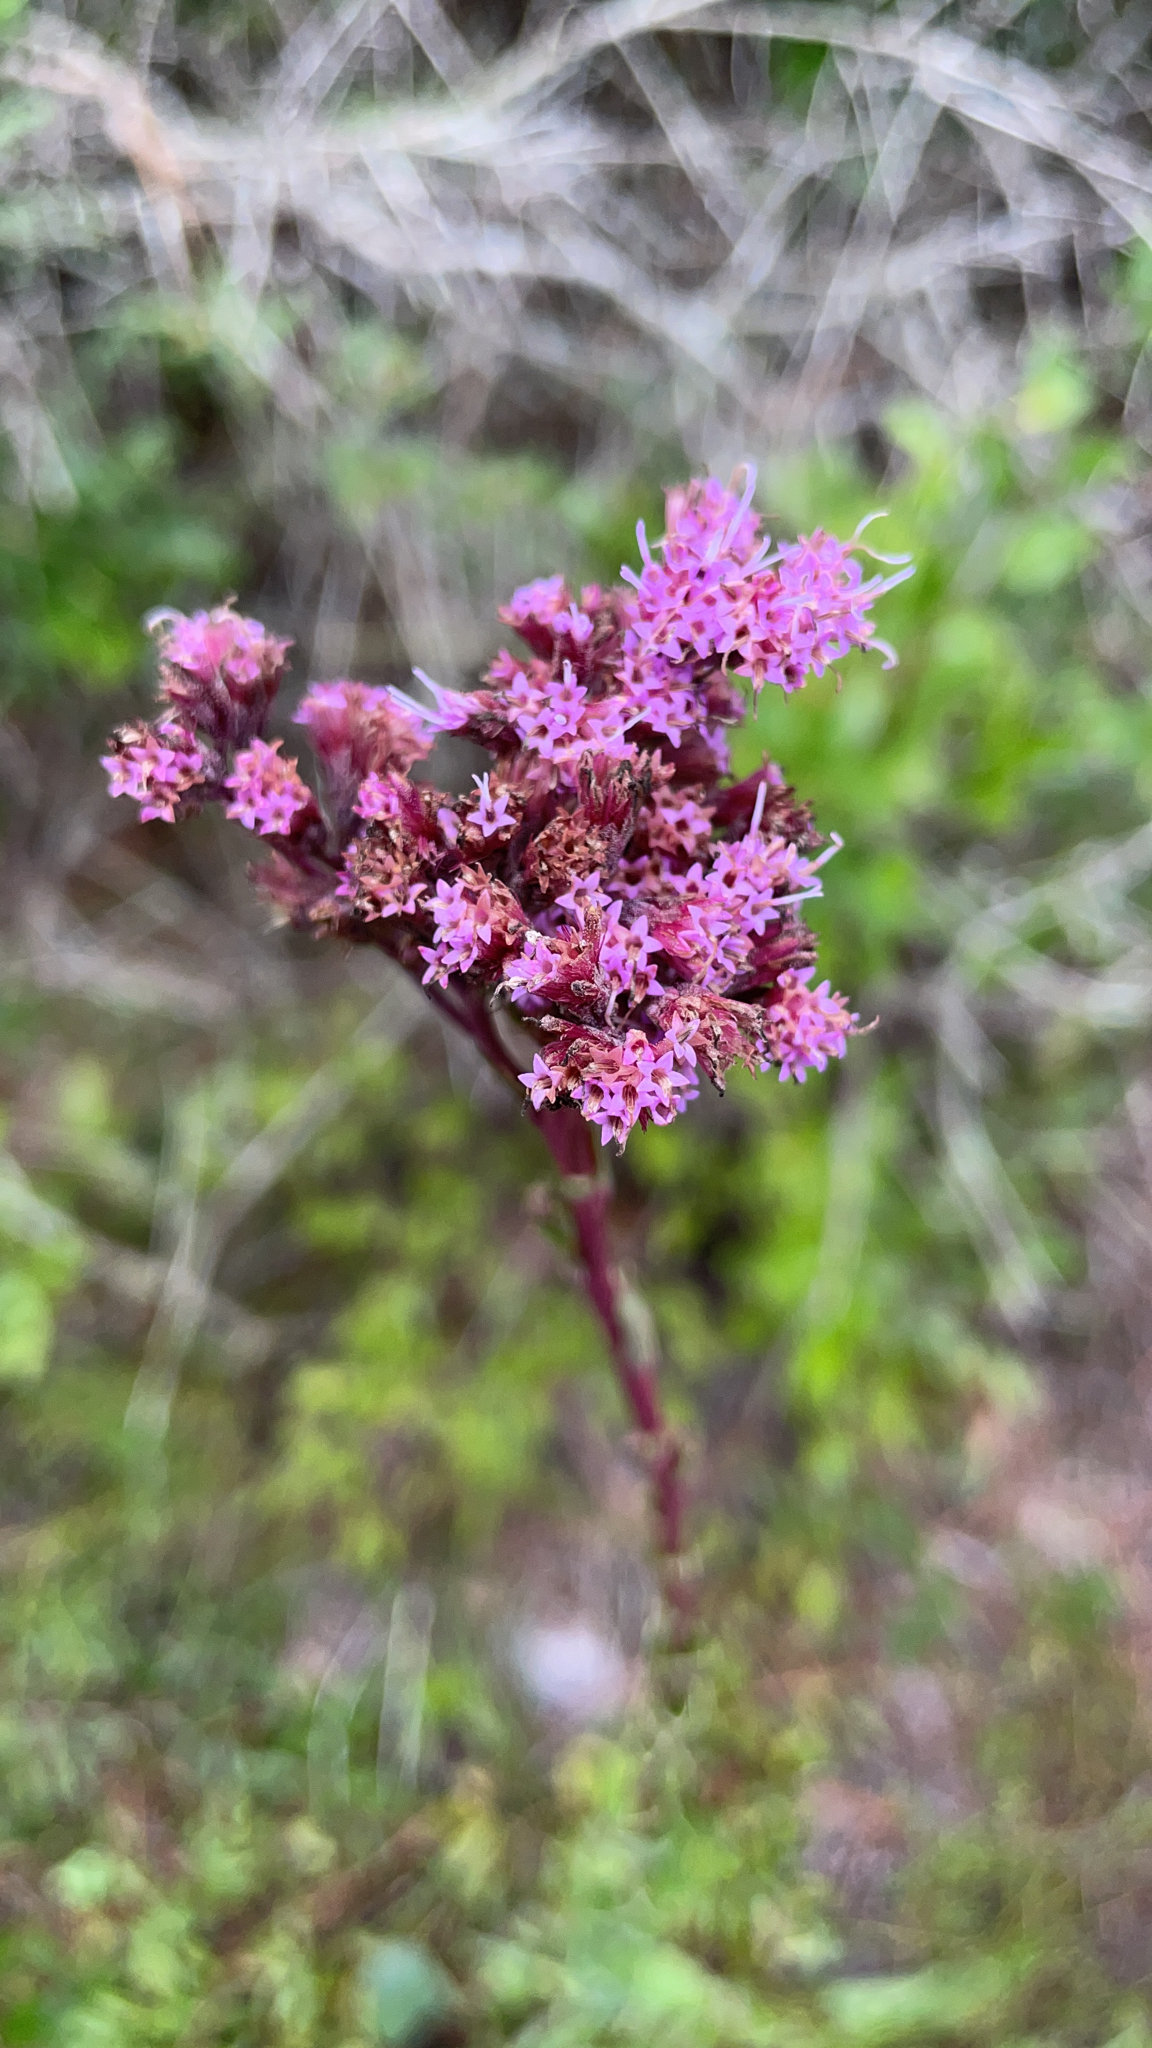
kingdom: Plantae
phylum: Tracheophyta
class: Magnoliopsida
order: Asterales
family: Asteraceae
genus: Carphephorus
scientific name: Carphephorus odoratissimus
